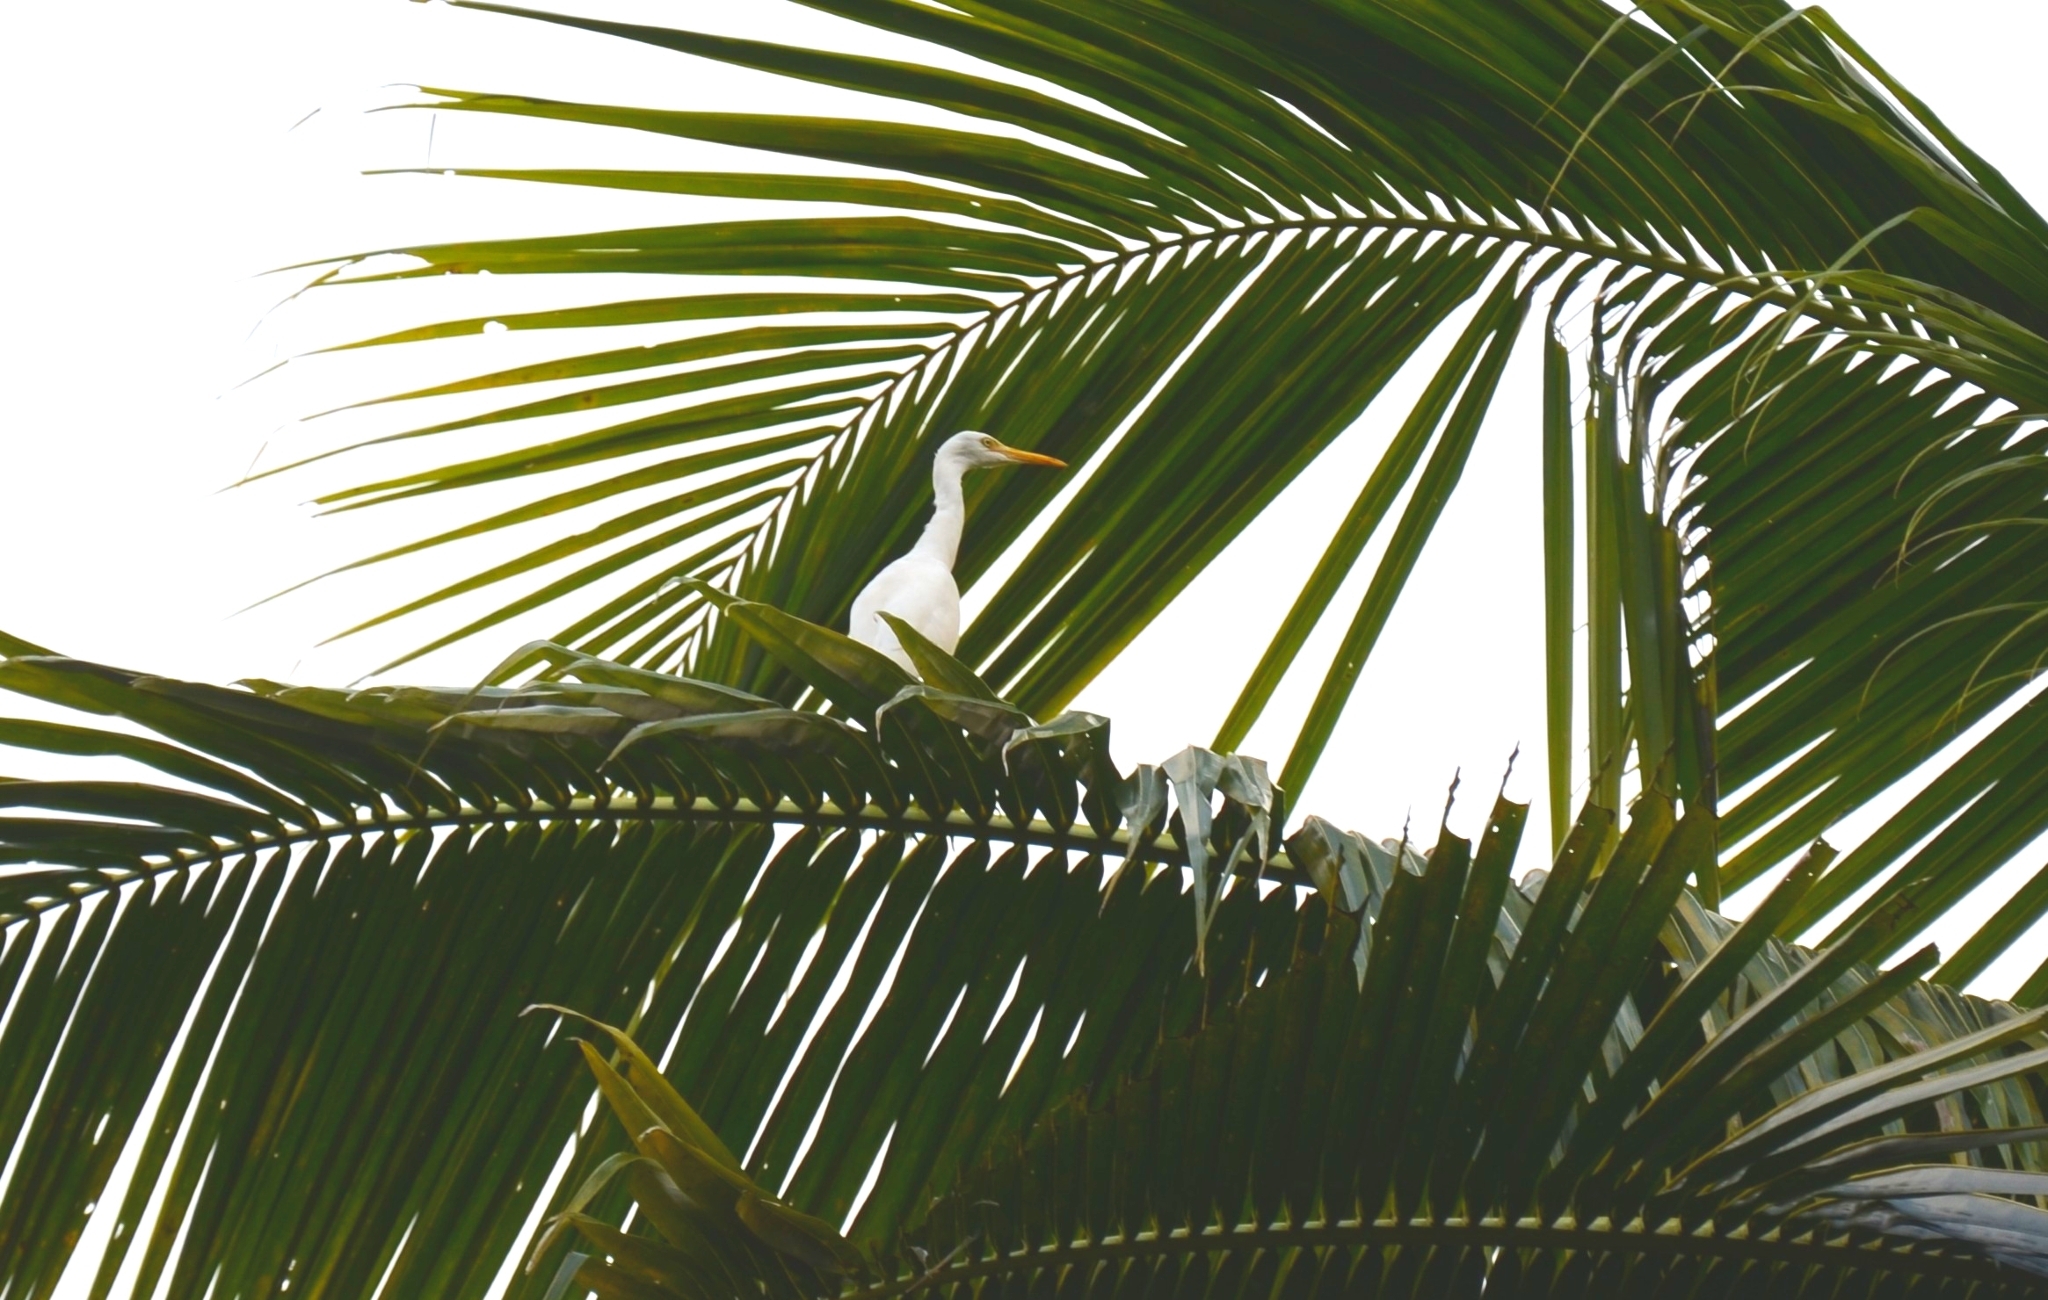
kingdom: Animalia
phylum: Chordata
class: Aves
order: Pelecaniformes
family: Ardeidae
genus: Bubulcus
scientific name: Bubulcus coromandus
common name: Eastern cattle egret
